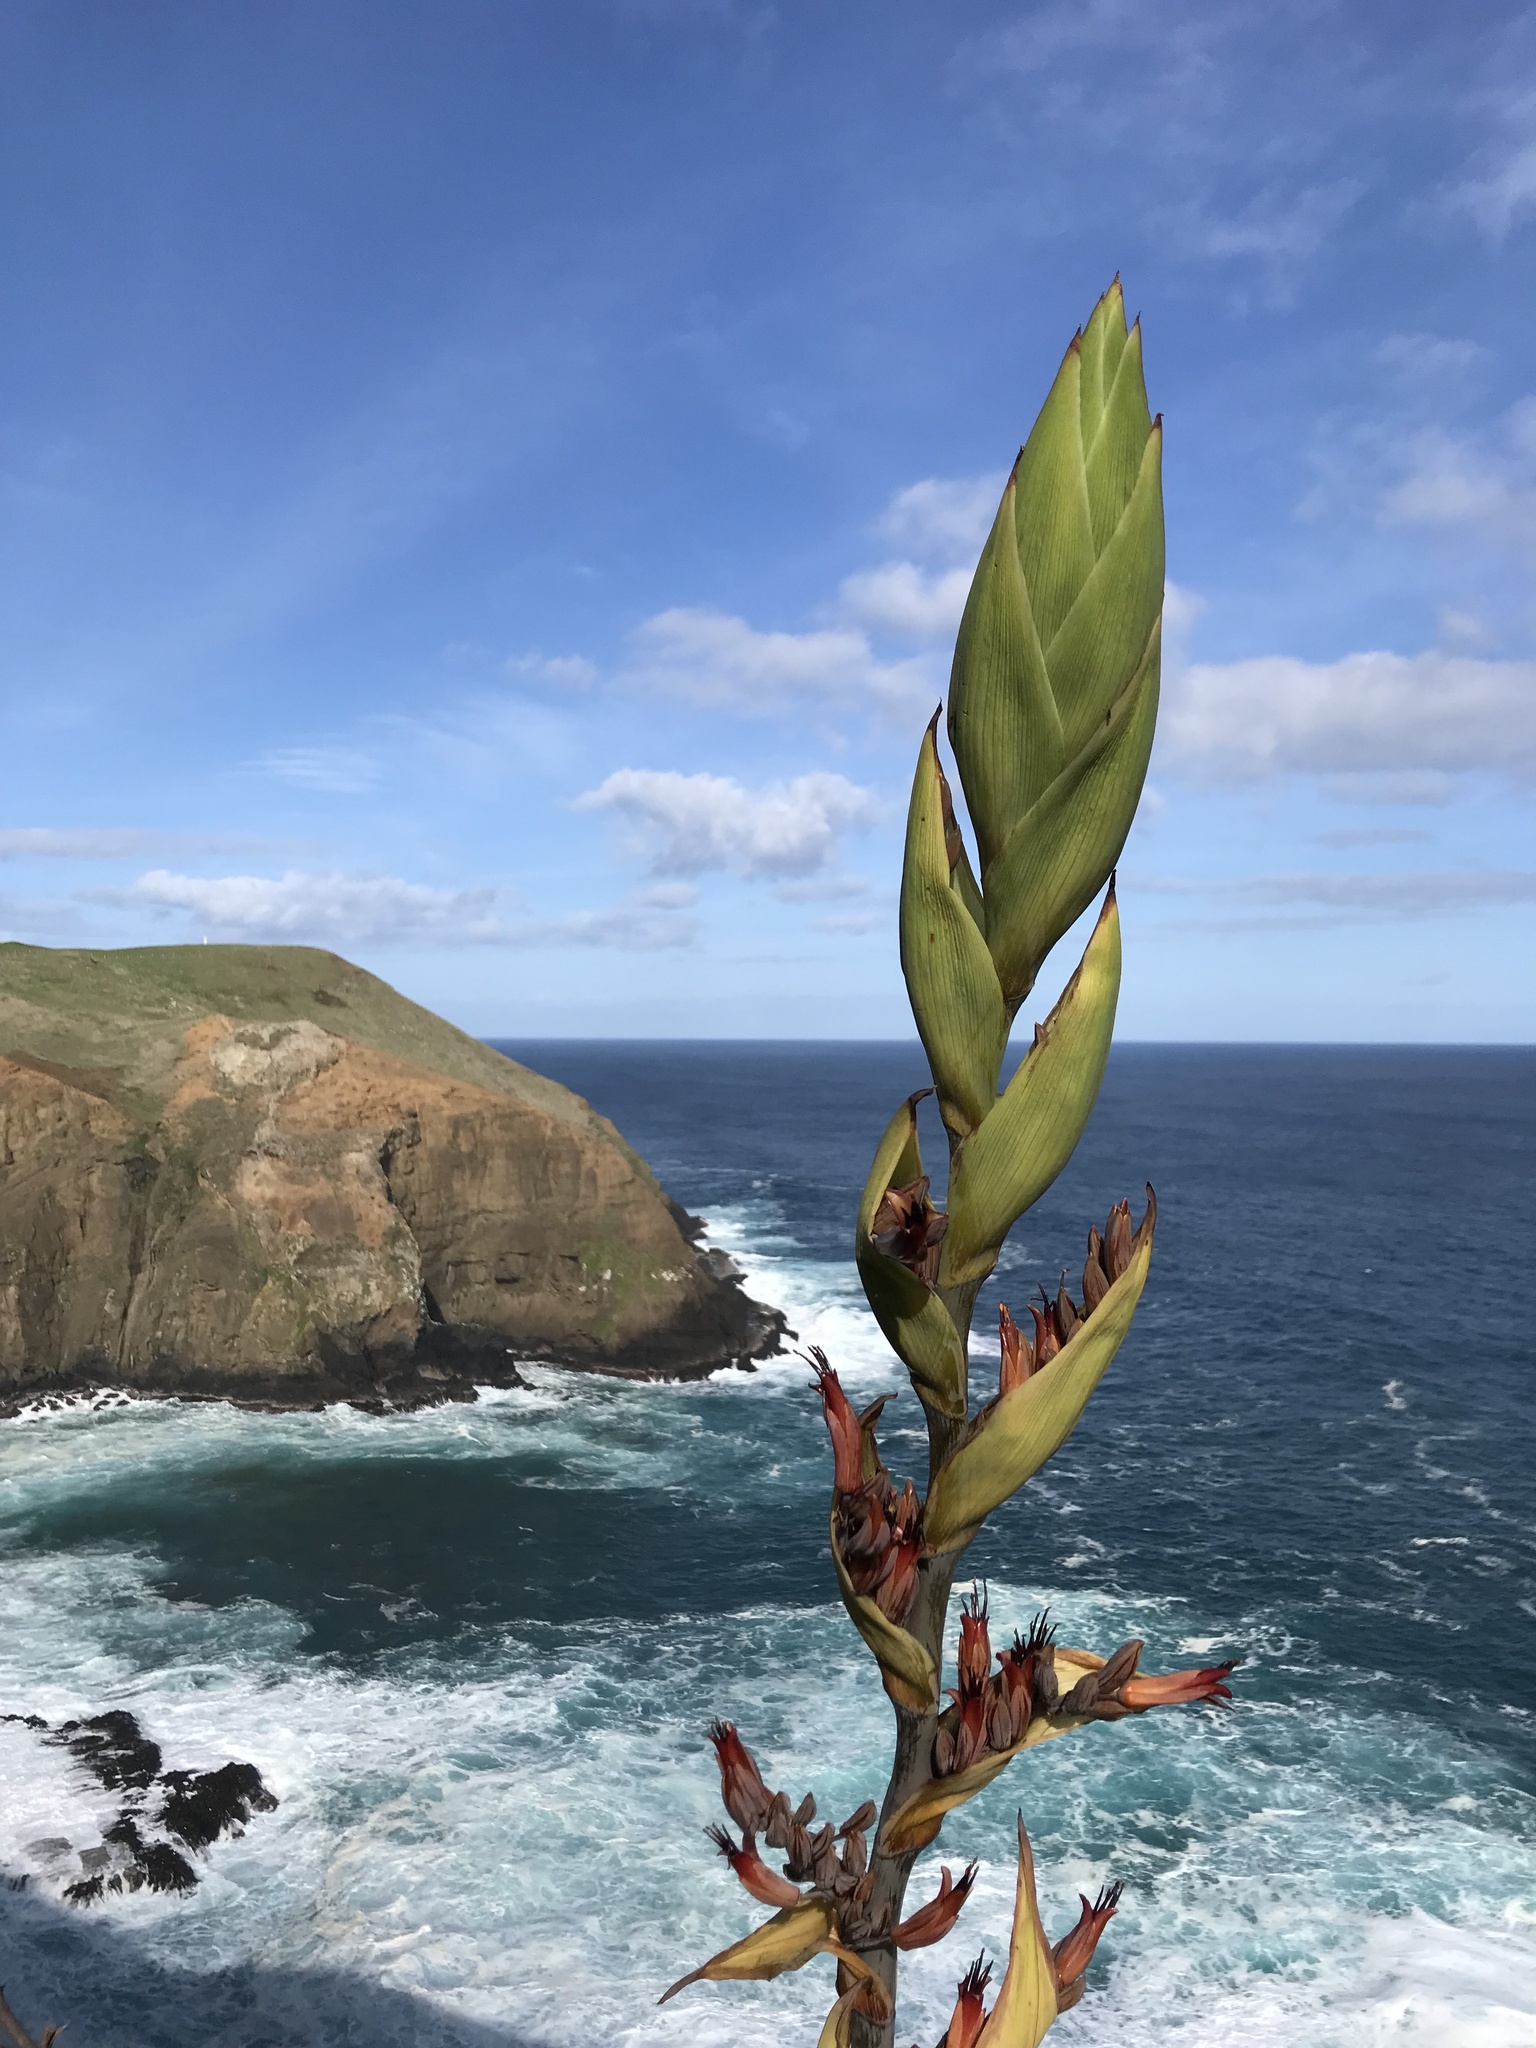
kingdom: Plantae
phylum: Tracheophyta
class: Liliopsida
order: Asparagales
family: Asphodelaceae
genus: Phormium
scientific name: Phormium tenax
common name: New zealand flax
